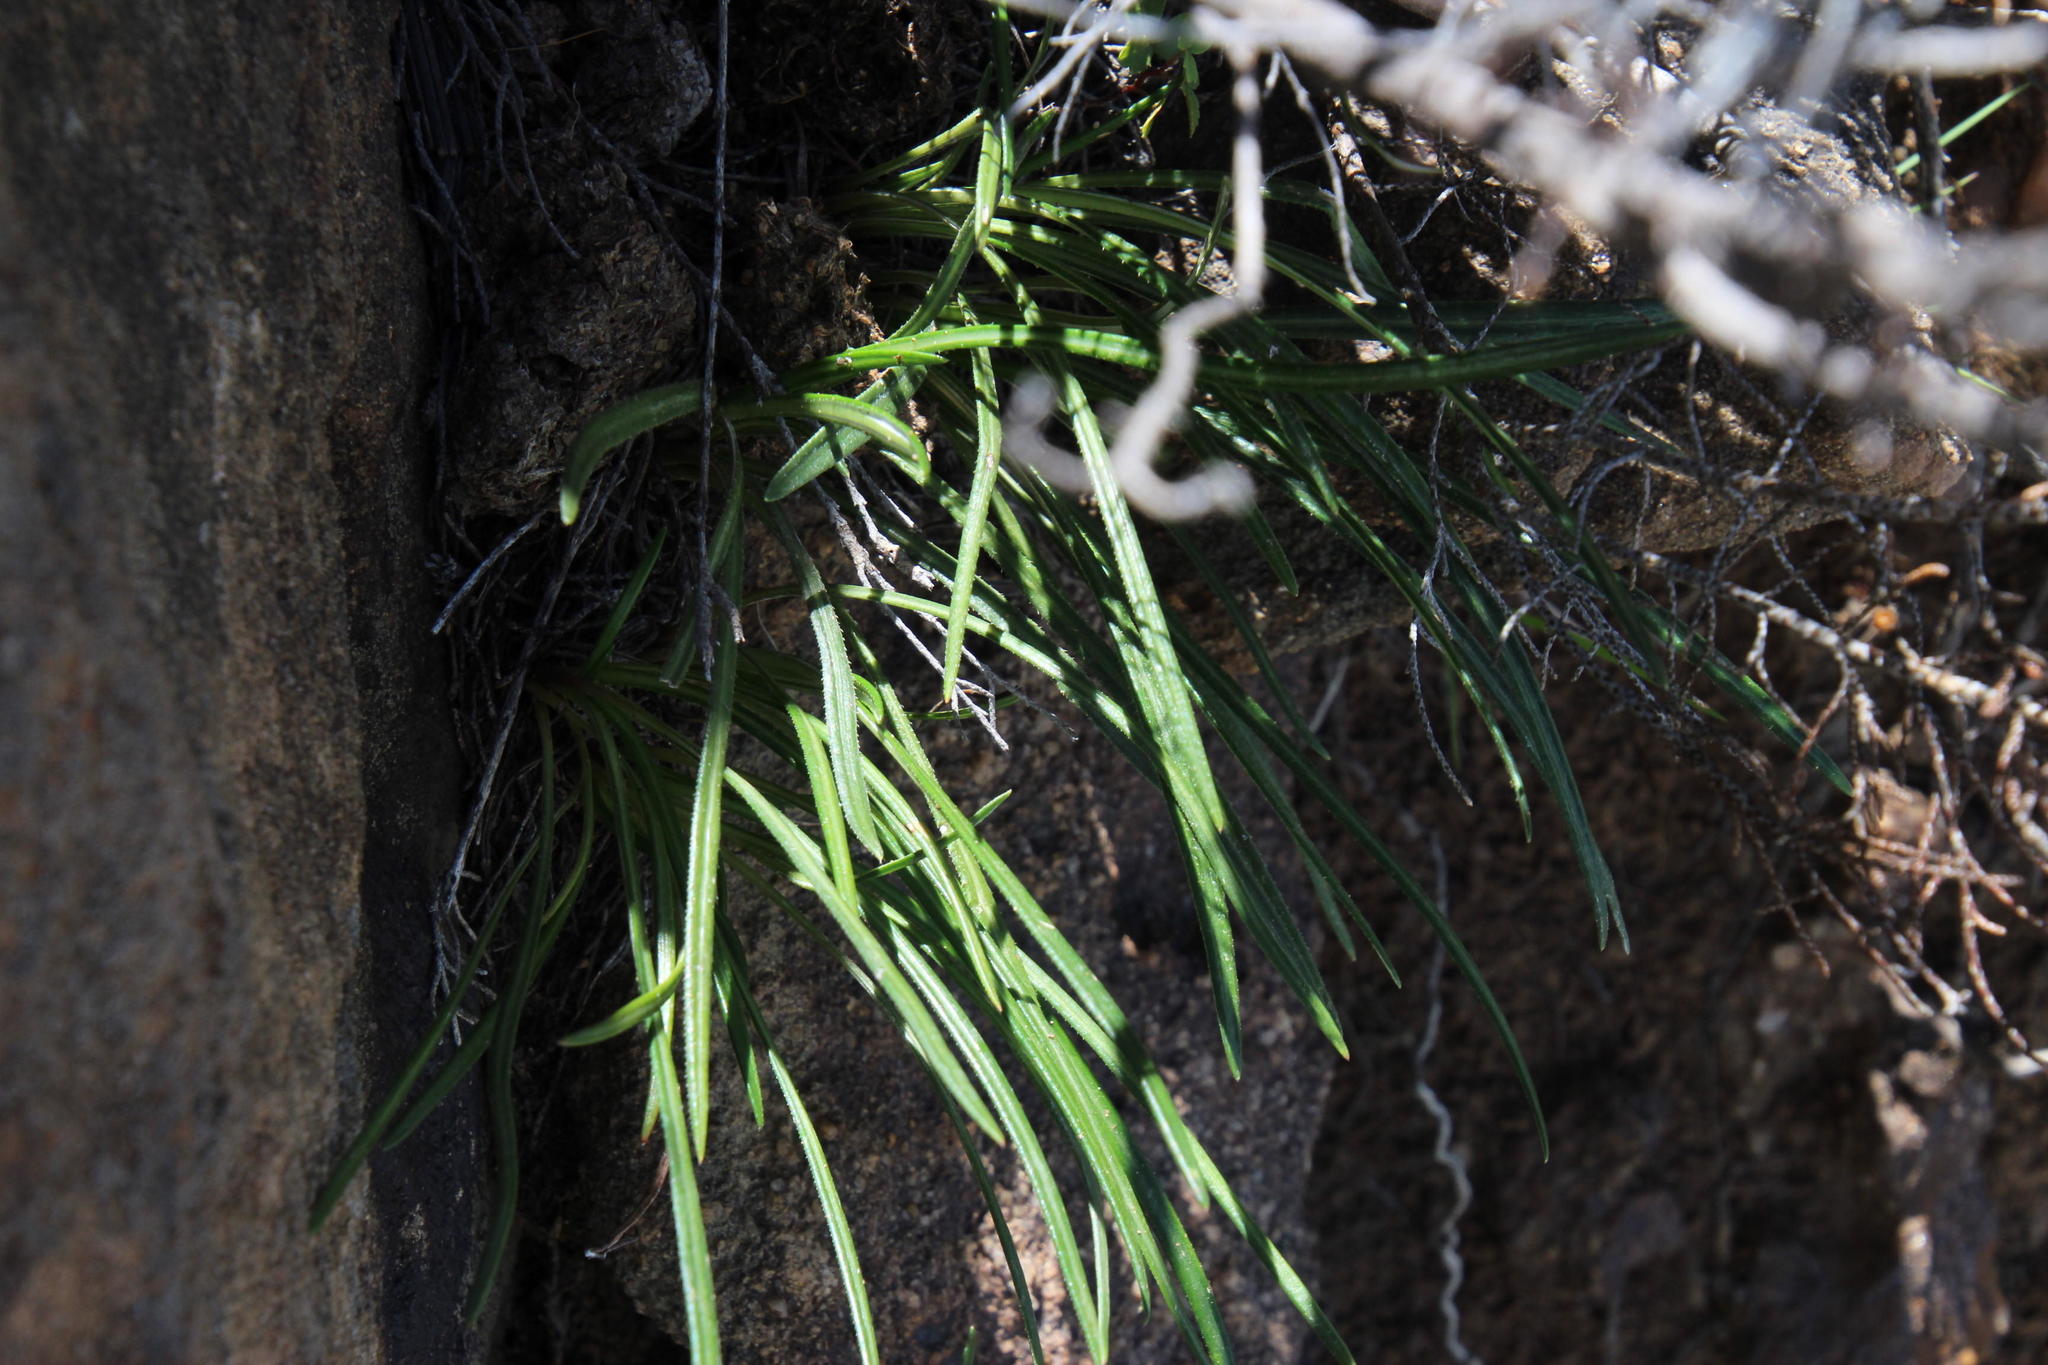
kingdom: Plantae
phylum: Tracheophyta
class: Magnoliopsida
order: Asterales
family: Asteraceae
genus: Gazania
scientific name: Gazania linearis
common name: Treasureflower
